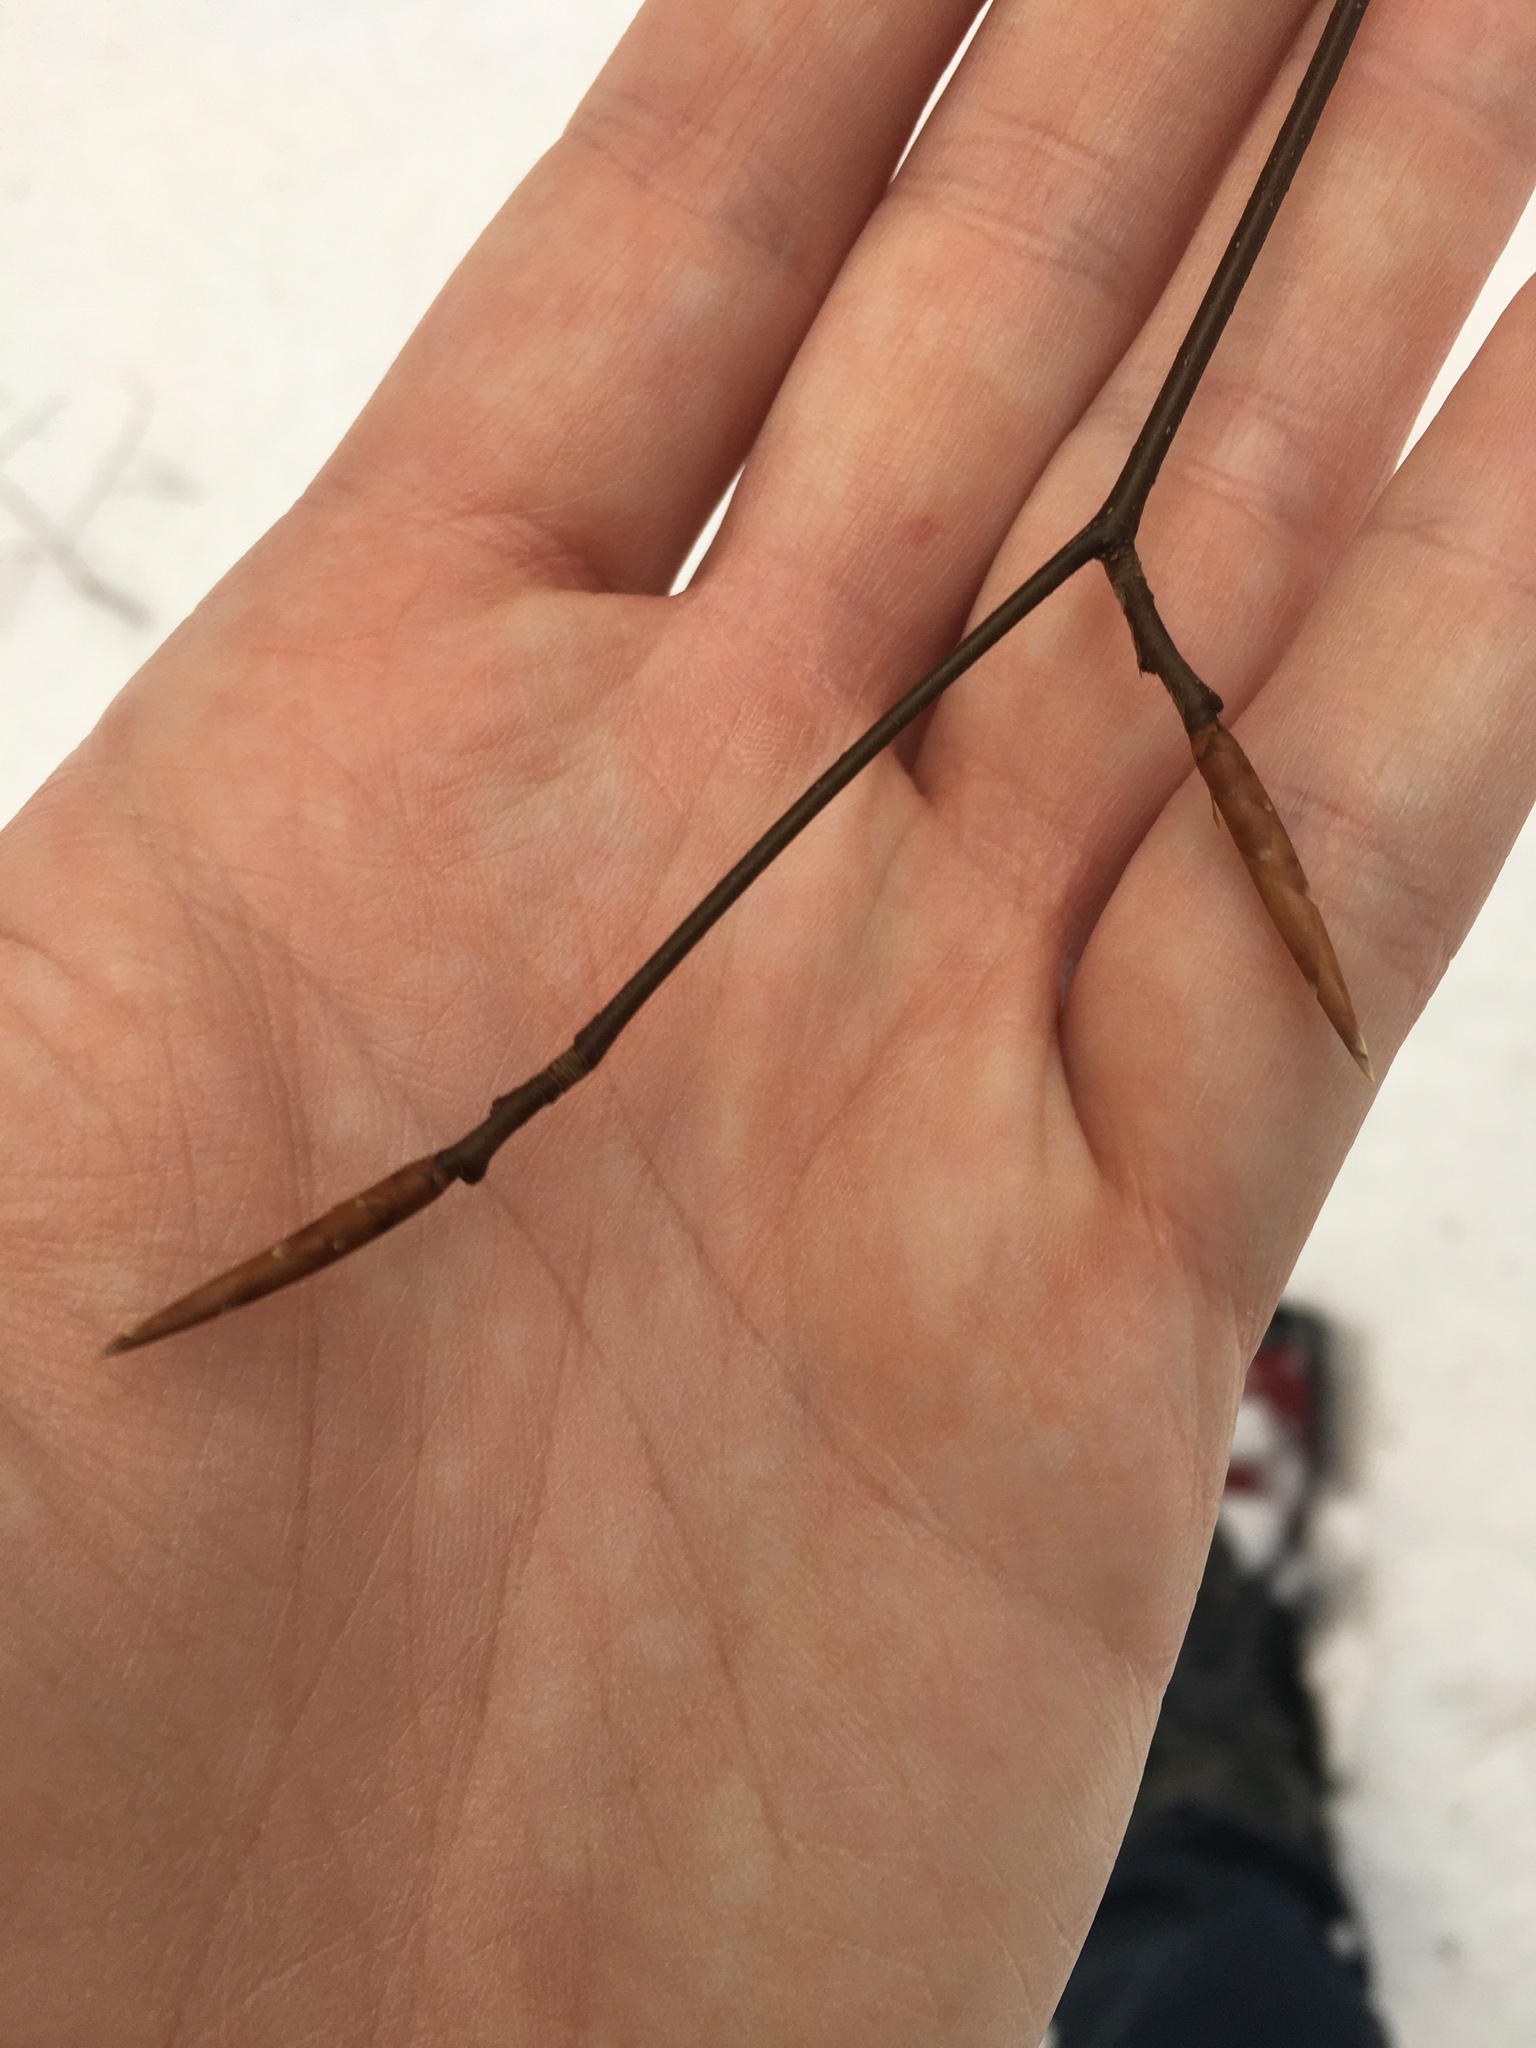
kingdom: Plantae
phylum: Tracheophyta
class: Magnoliopsida
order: Fagales
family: Fagaceae
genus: Fagus
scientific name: Fagus grandifolia
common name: American beech
